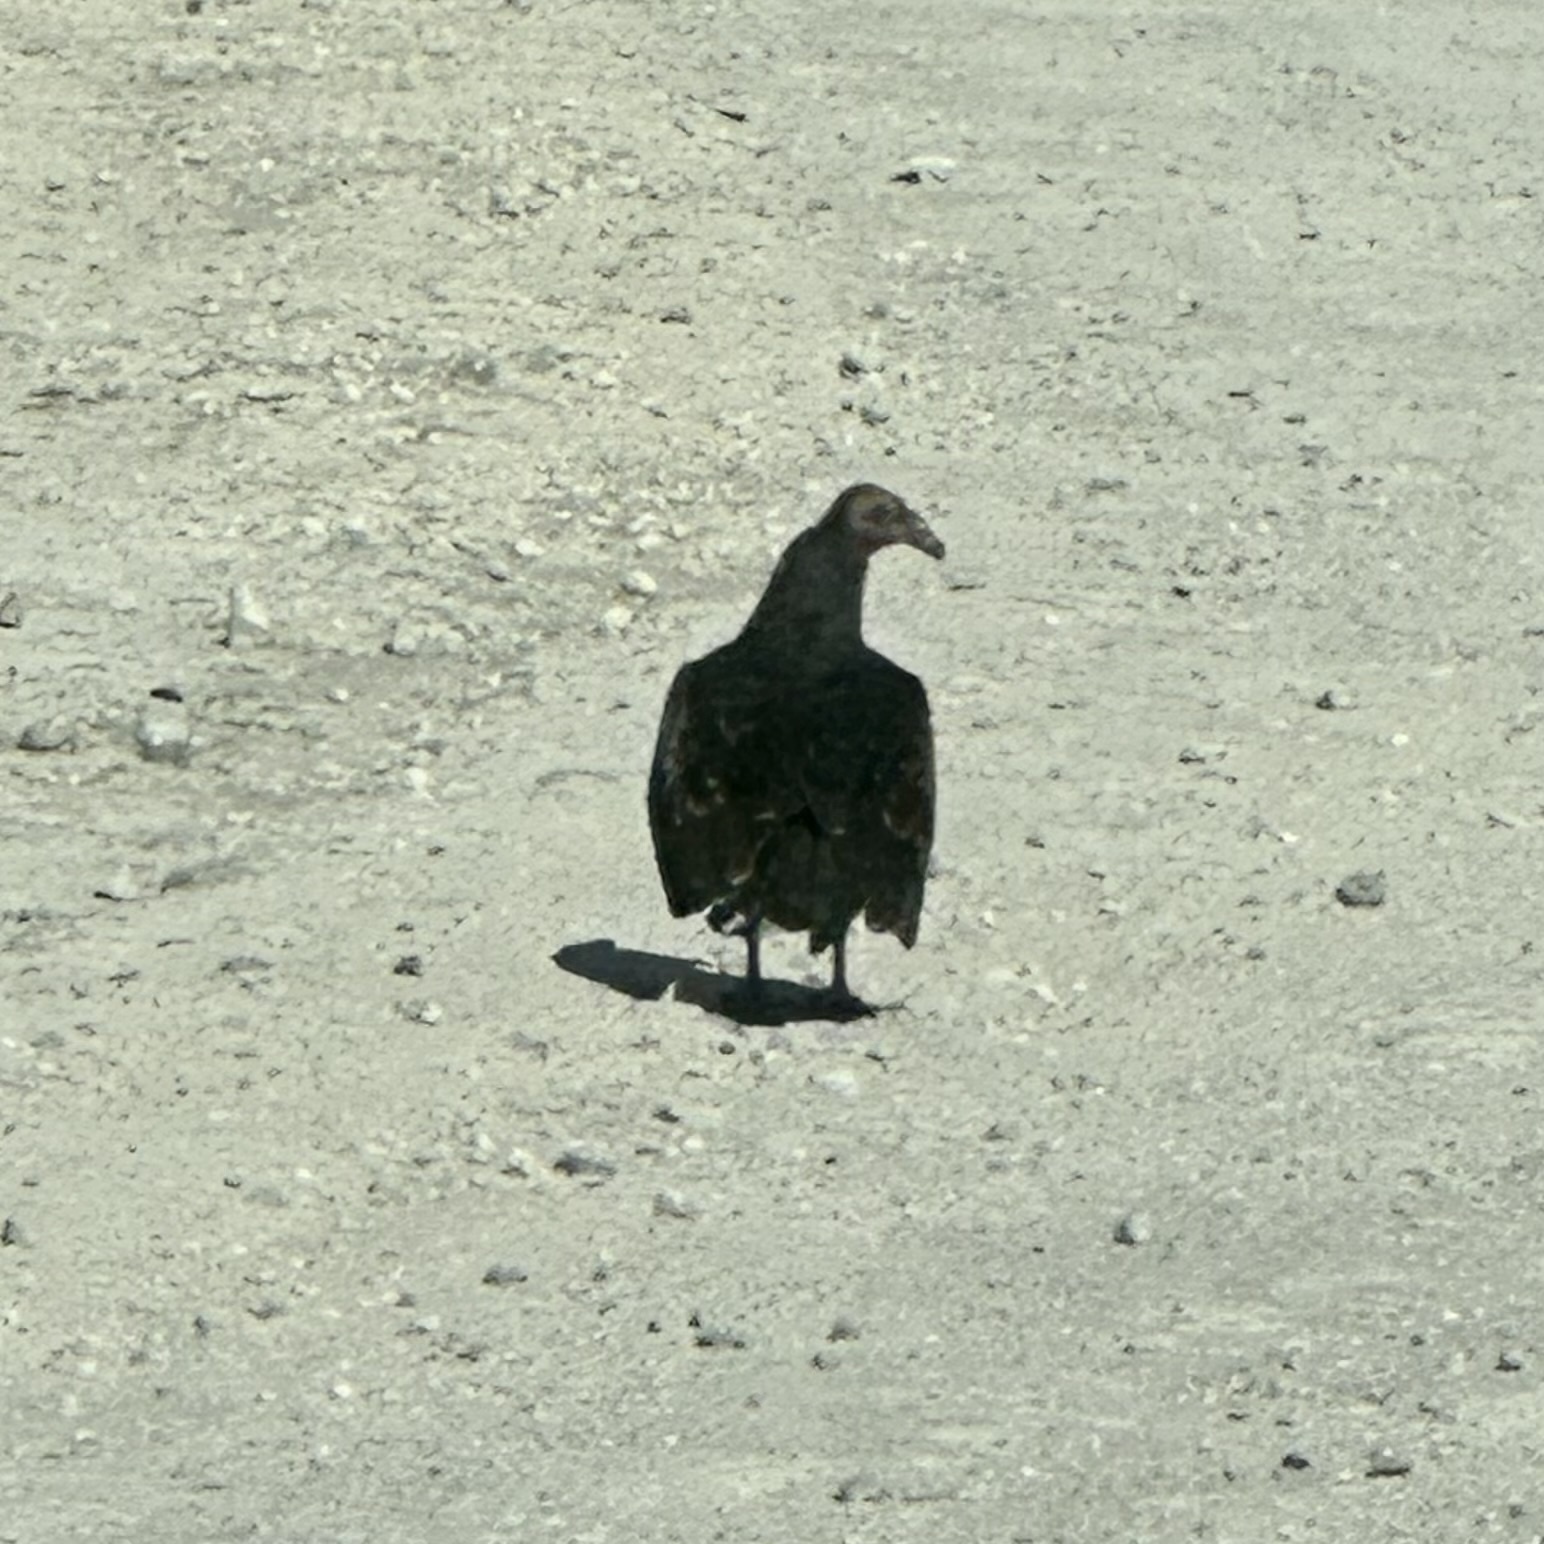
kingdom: Animalia
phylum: Chordata
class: Aves
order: Accipitriformes
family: Cathartidae
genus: Cathartes
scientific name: Cathartes aura
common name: Turkey vulture
